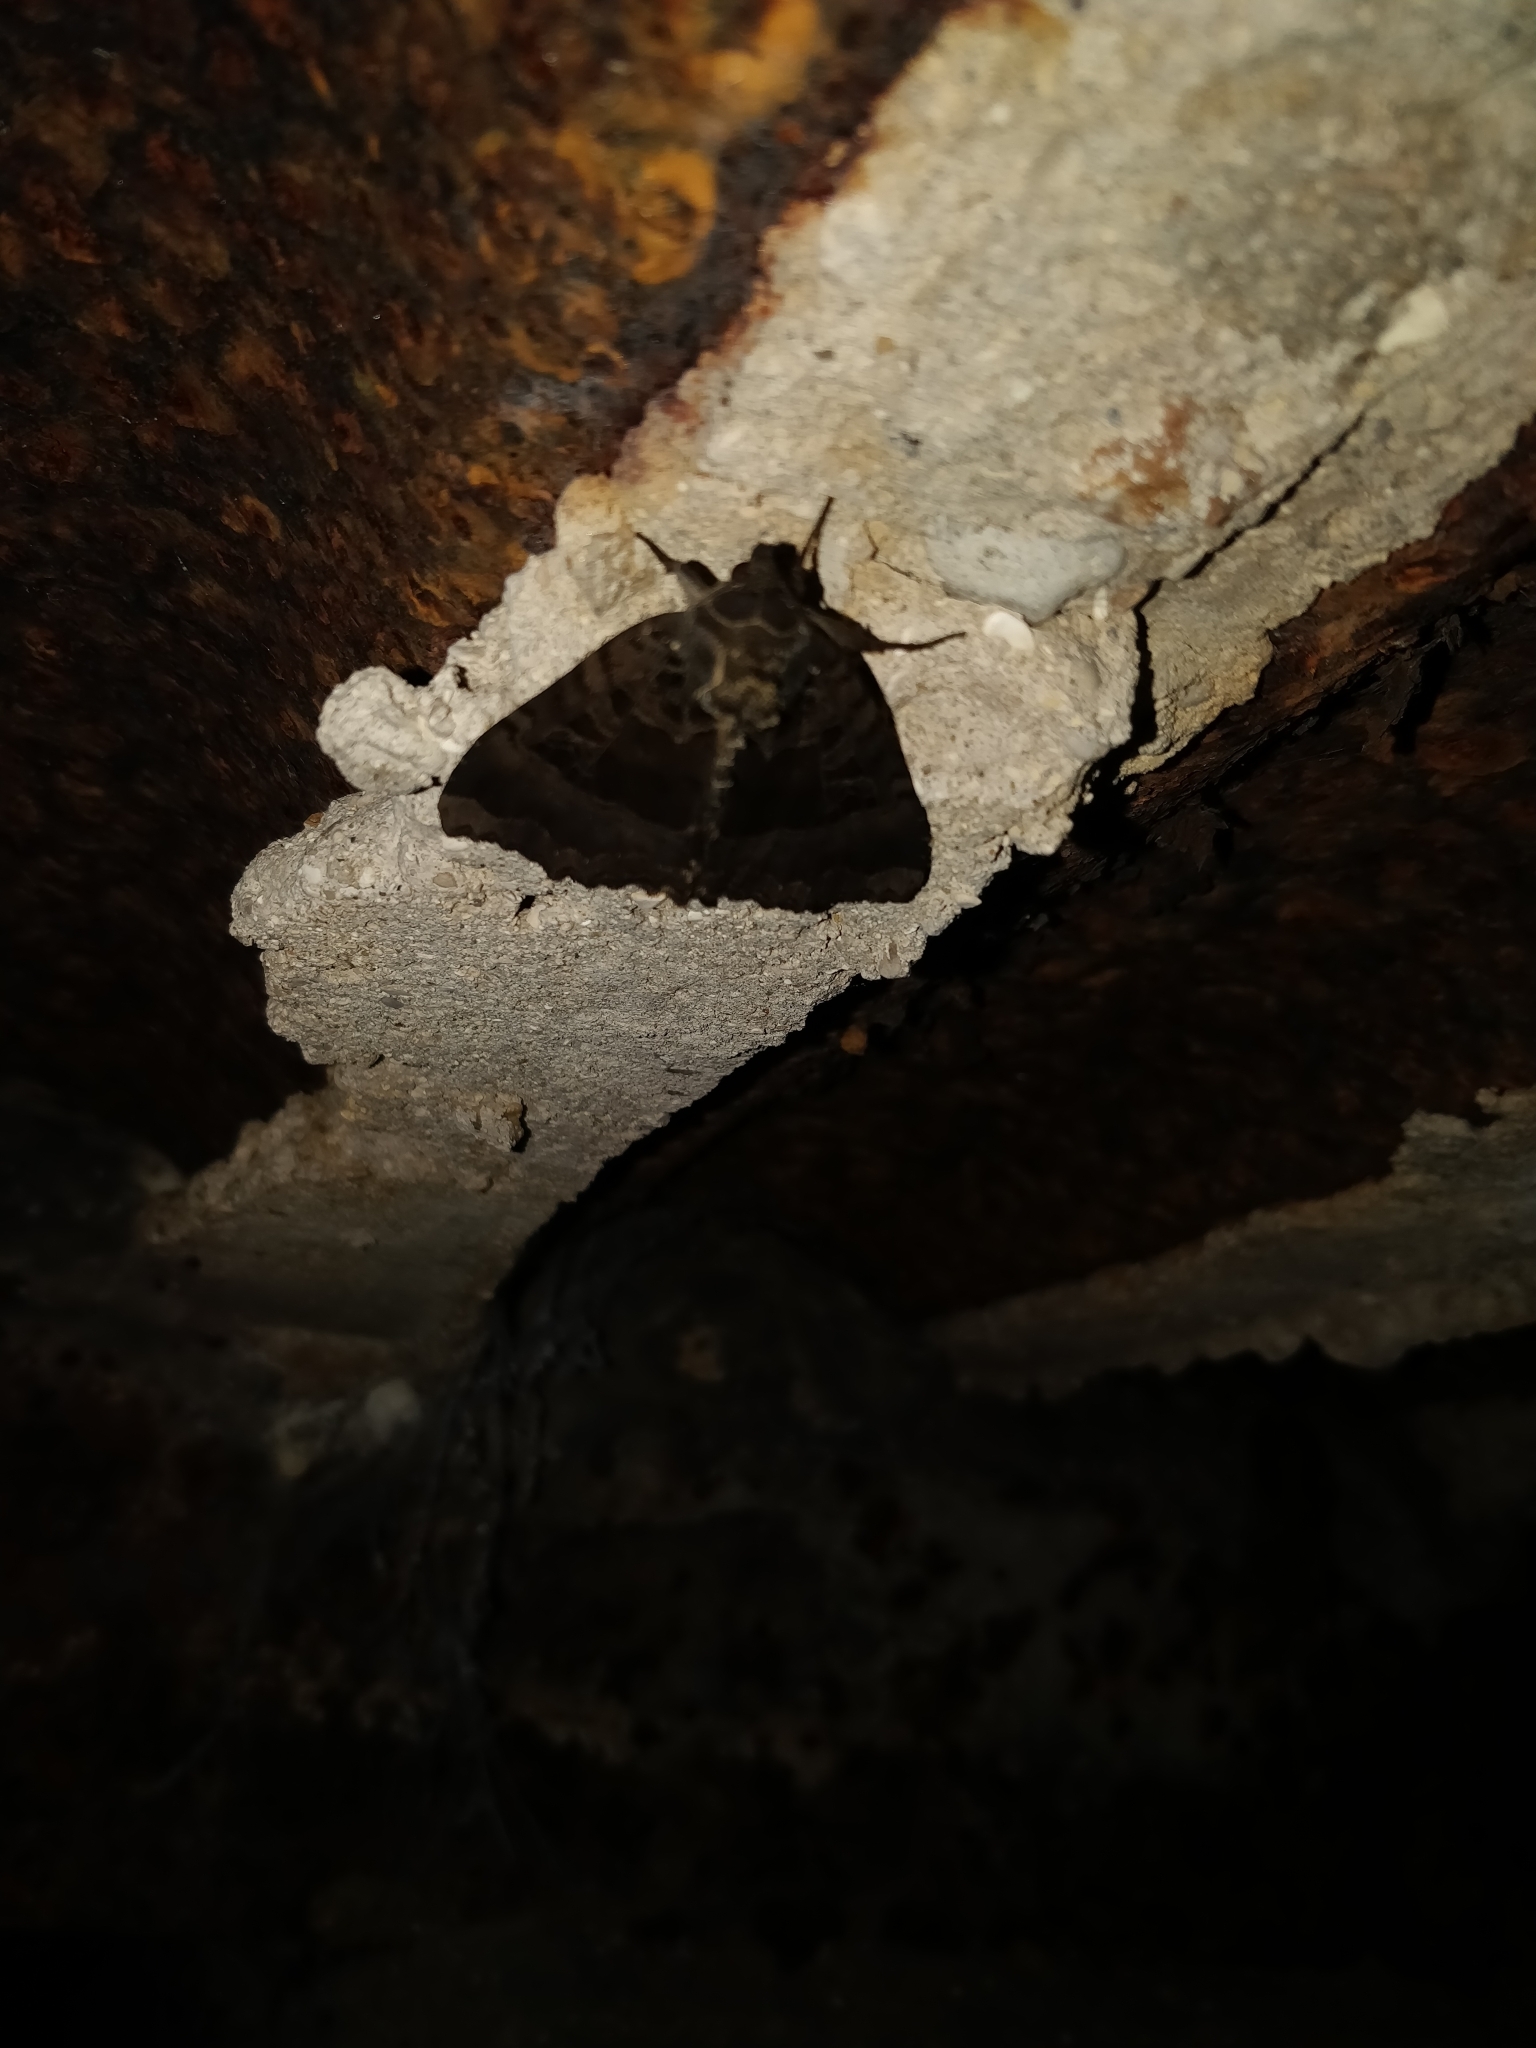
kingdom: Animalia
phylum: Arthropoda
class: Insecta
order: Lepidoptera
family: Noctuidae
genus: Mormo
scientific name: Mormo maura
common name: Old lady
